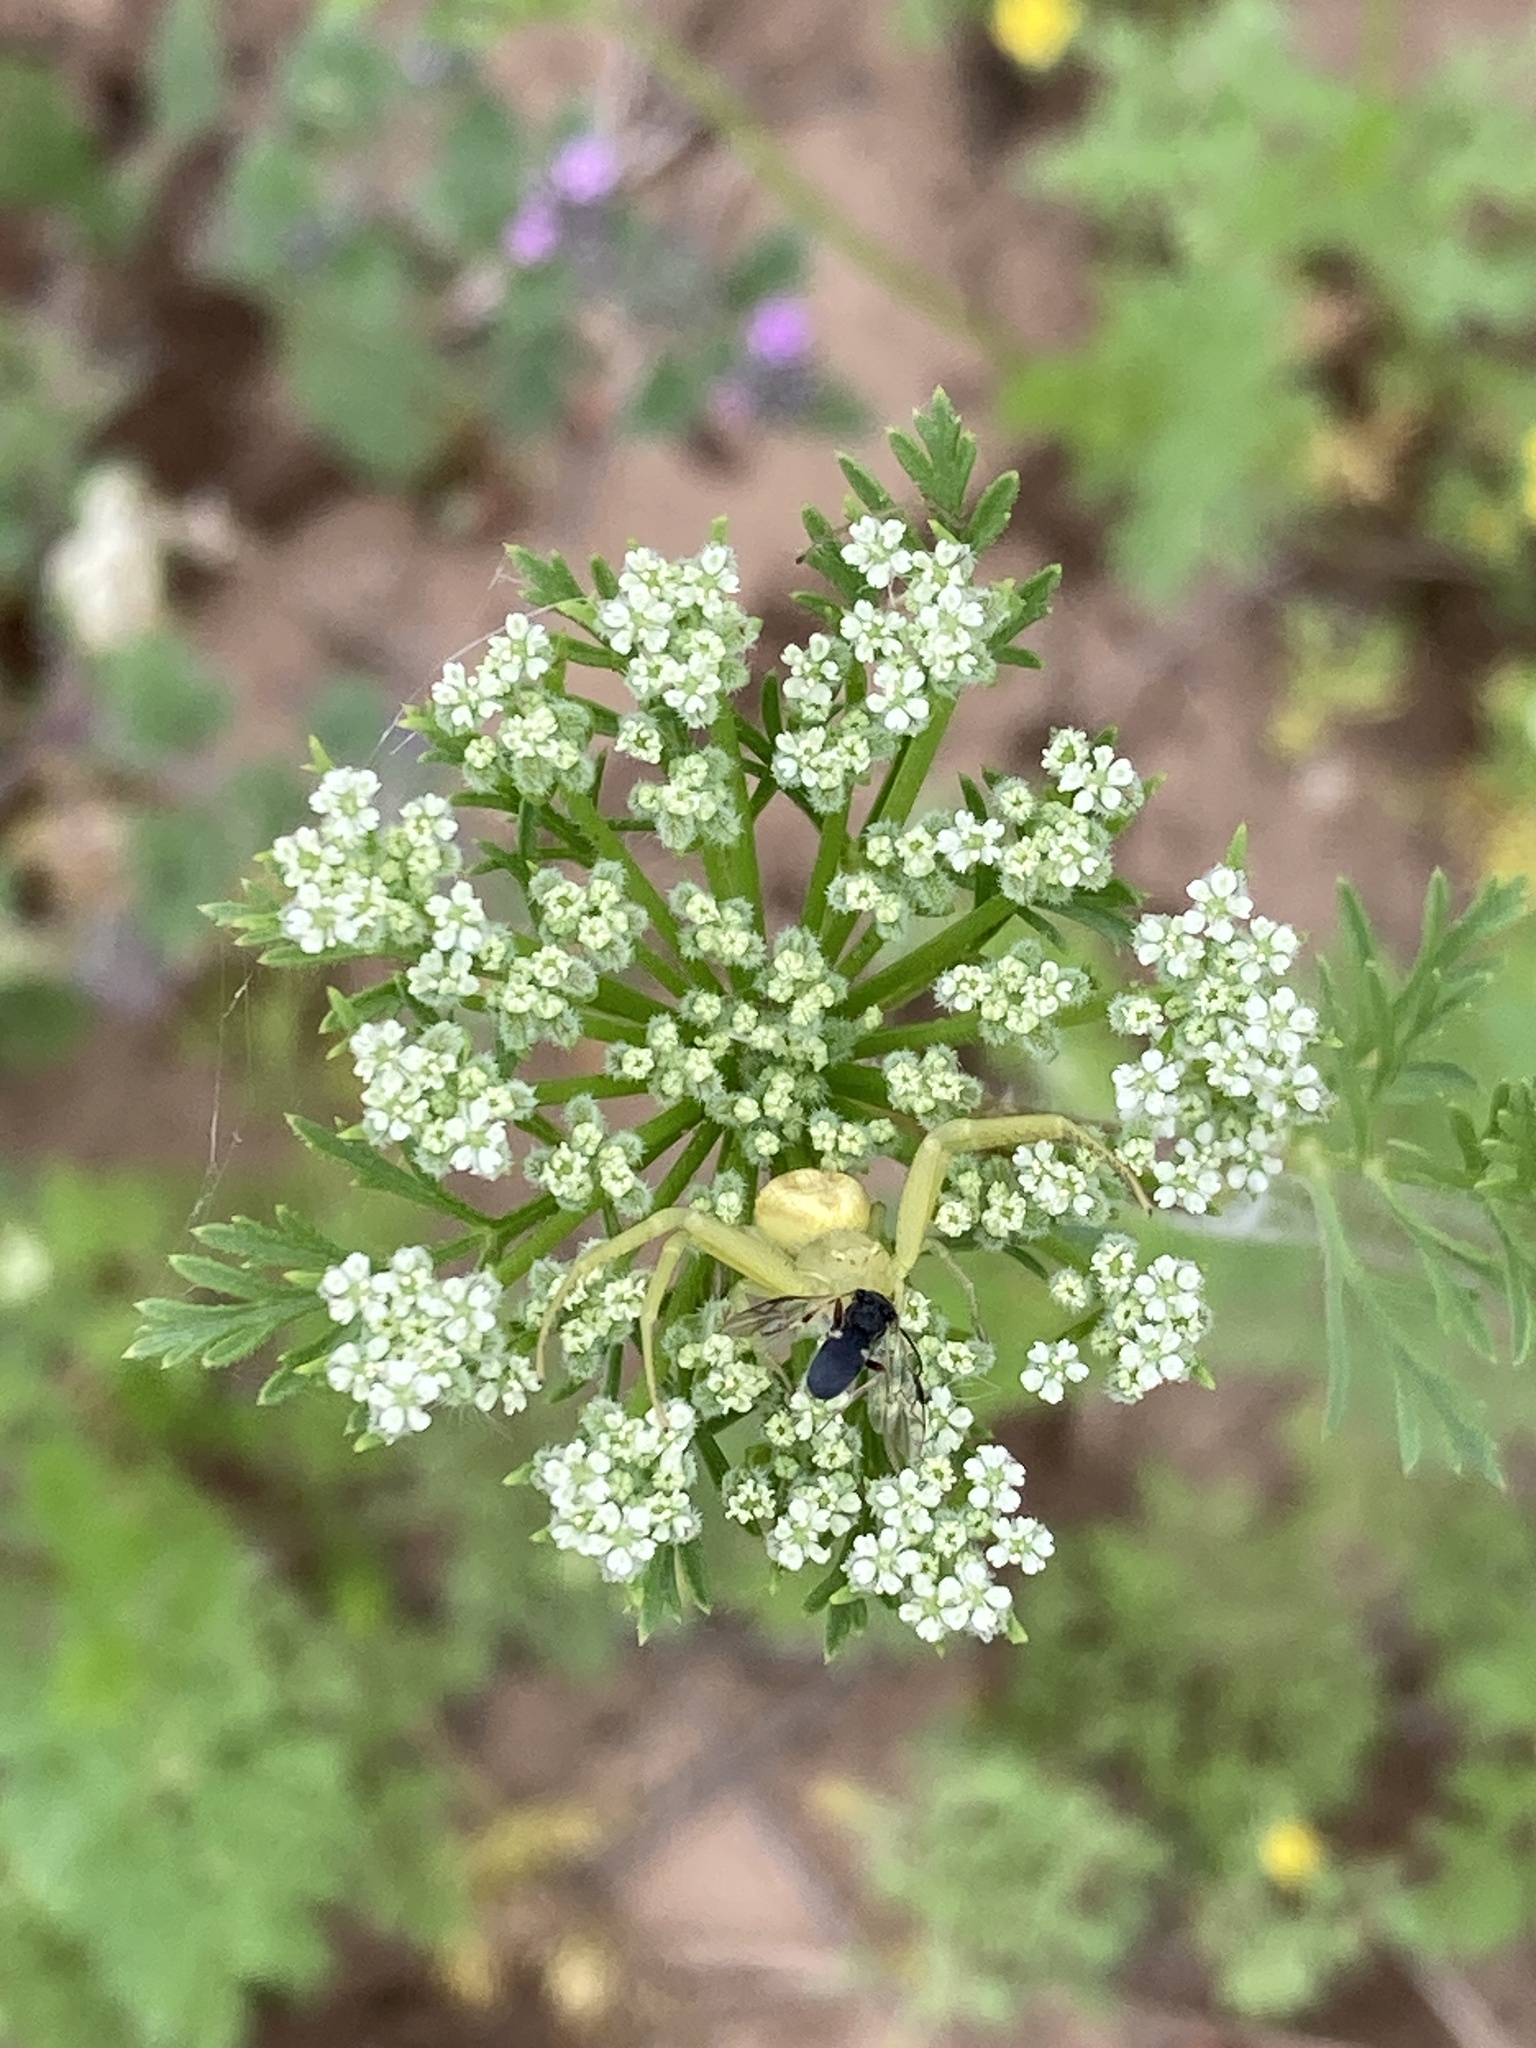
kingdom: Plantae
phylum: Tracheophyta
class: Magnoliopsida
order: Apiales
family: Apiaceae
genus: Daucus
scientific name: Daucus pusillus
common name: Southwest wild carrot
